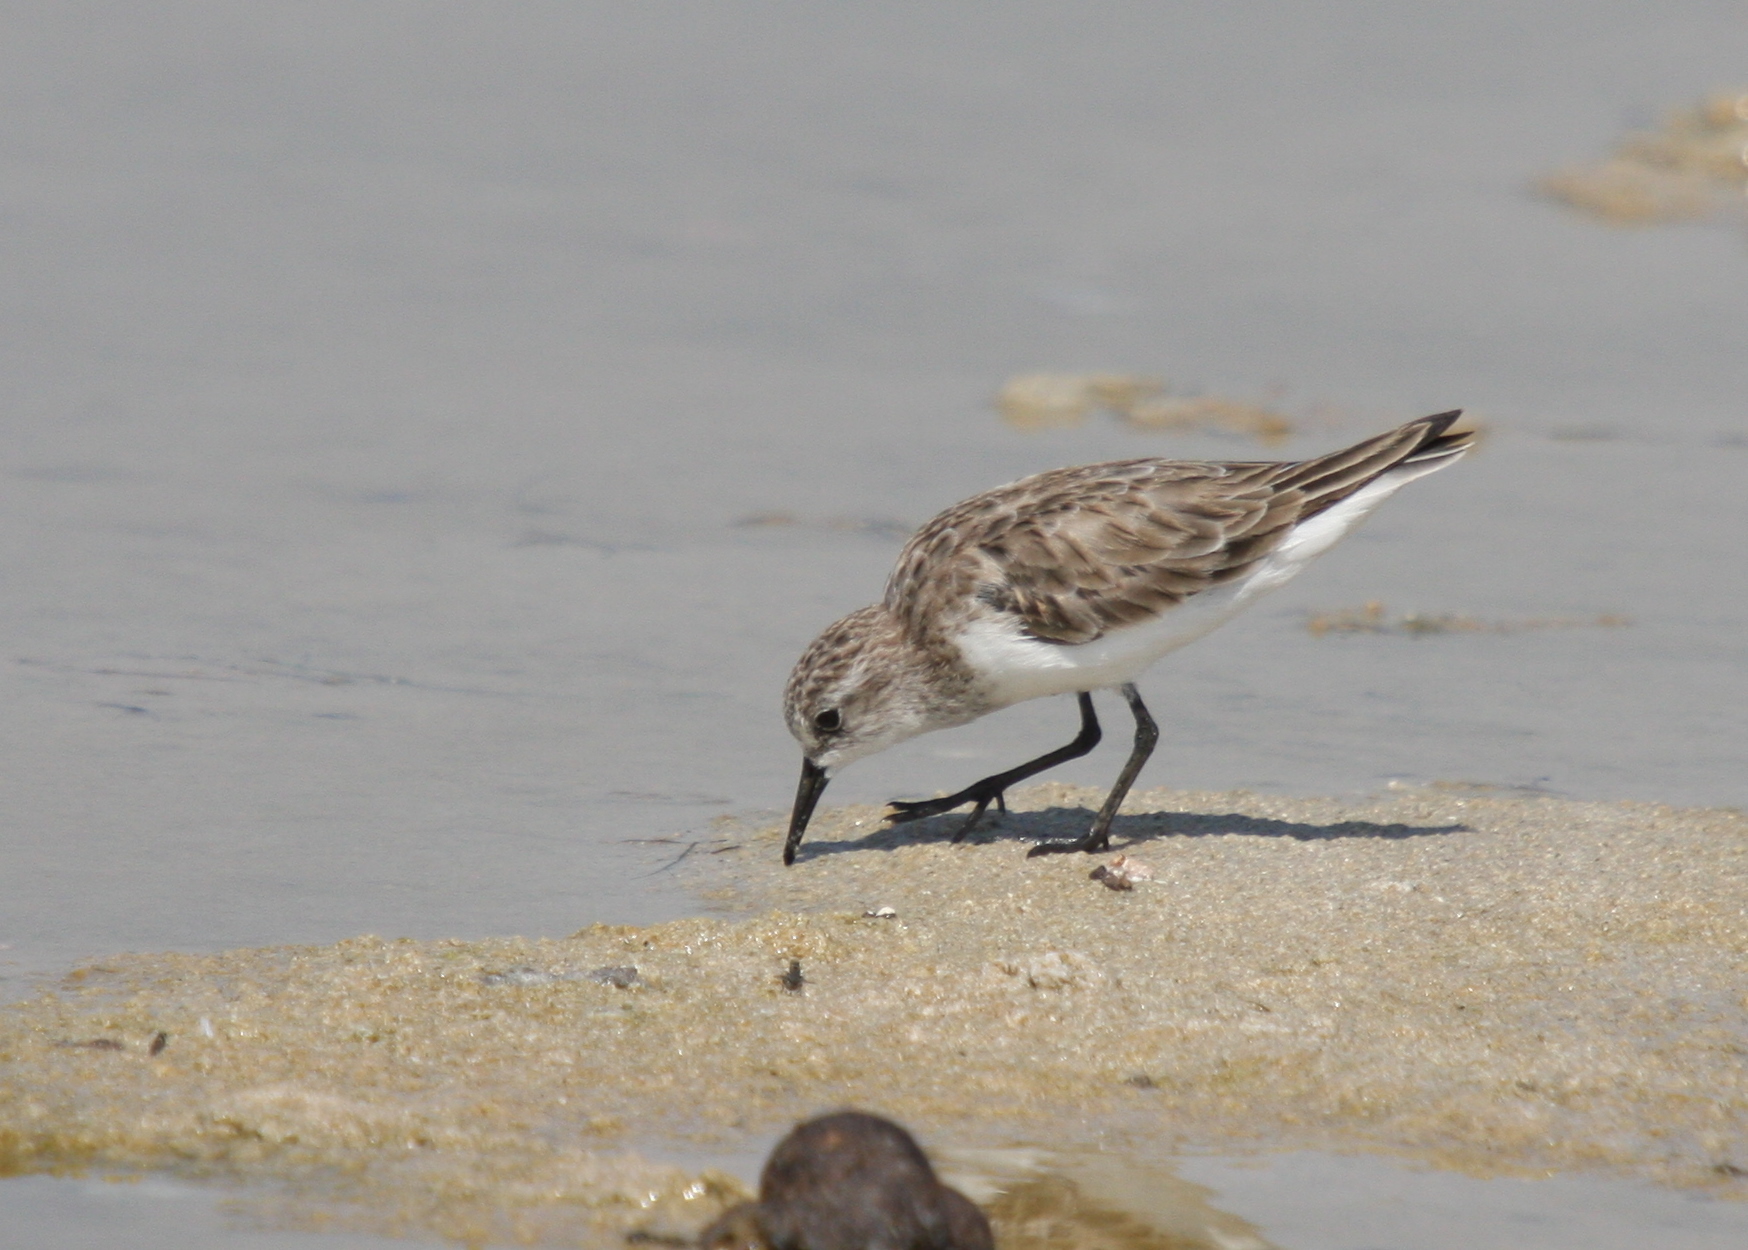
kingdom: Animalia
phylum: Chordata
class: Aves
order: Charadriiformes
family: Scolopacidae
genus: Calidris
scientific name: Calidris minuta
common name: Little stint
